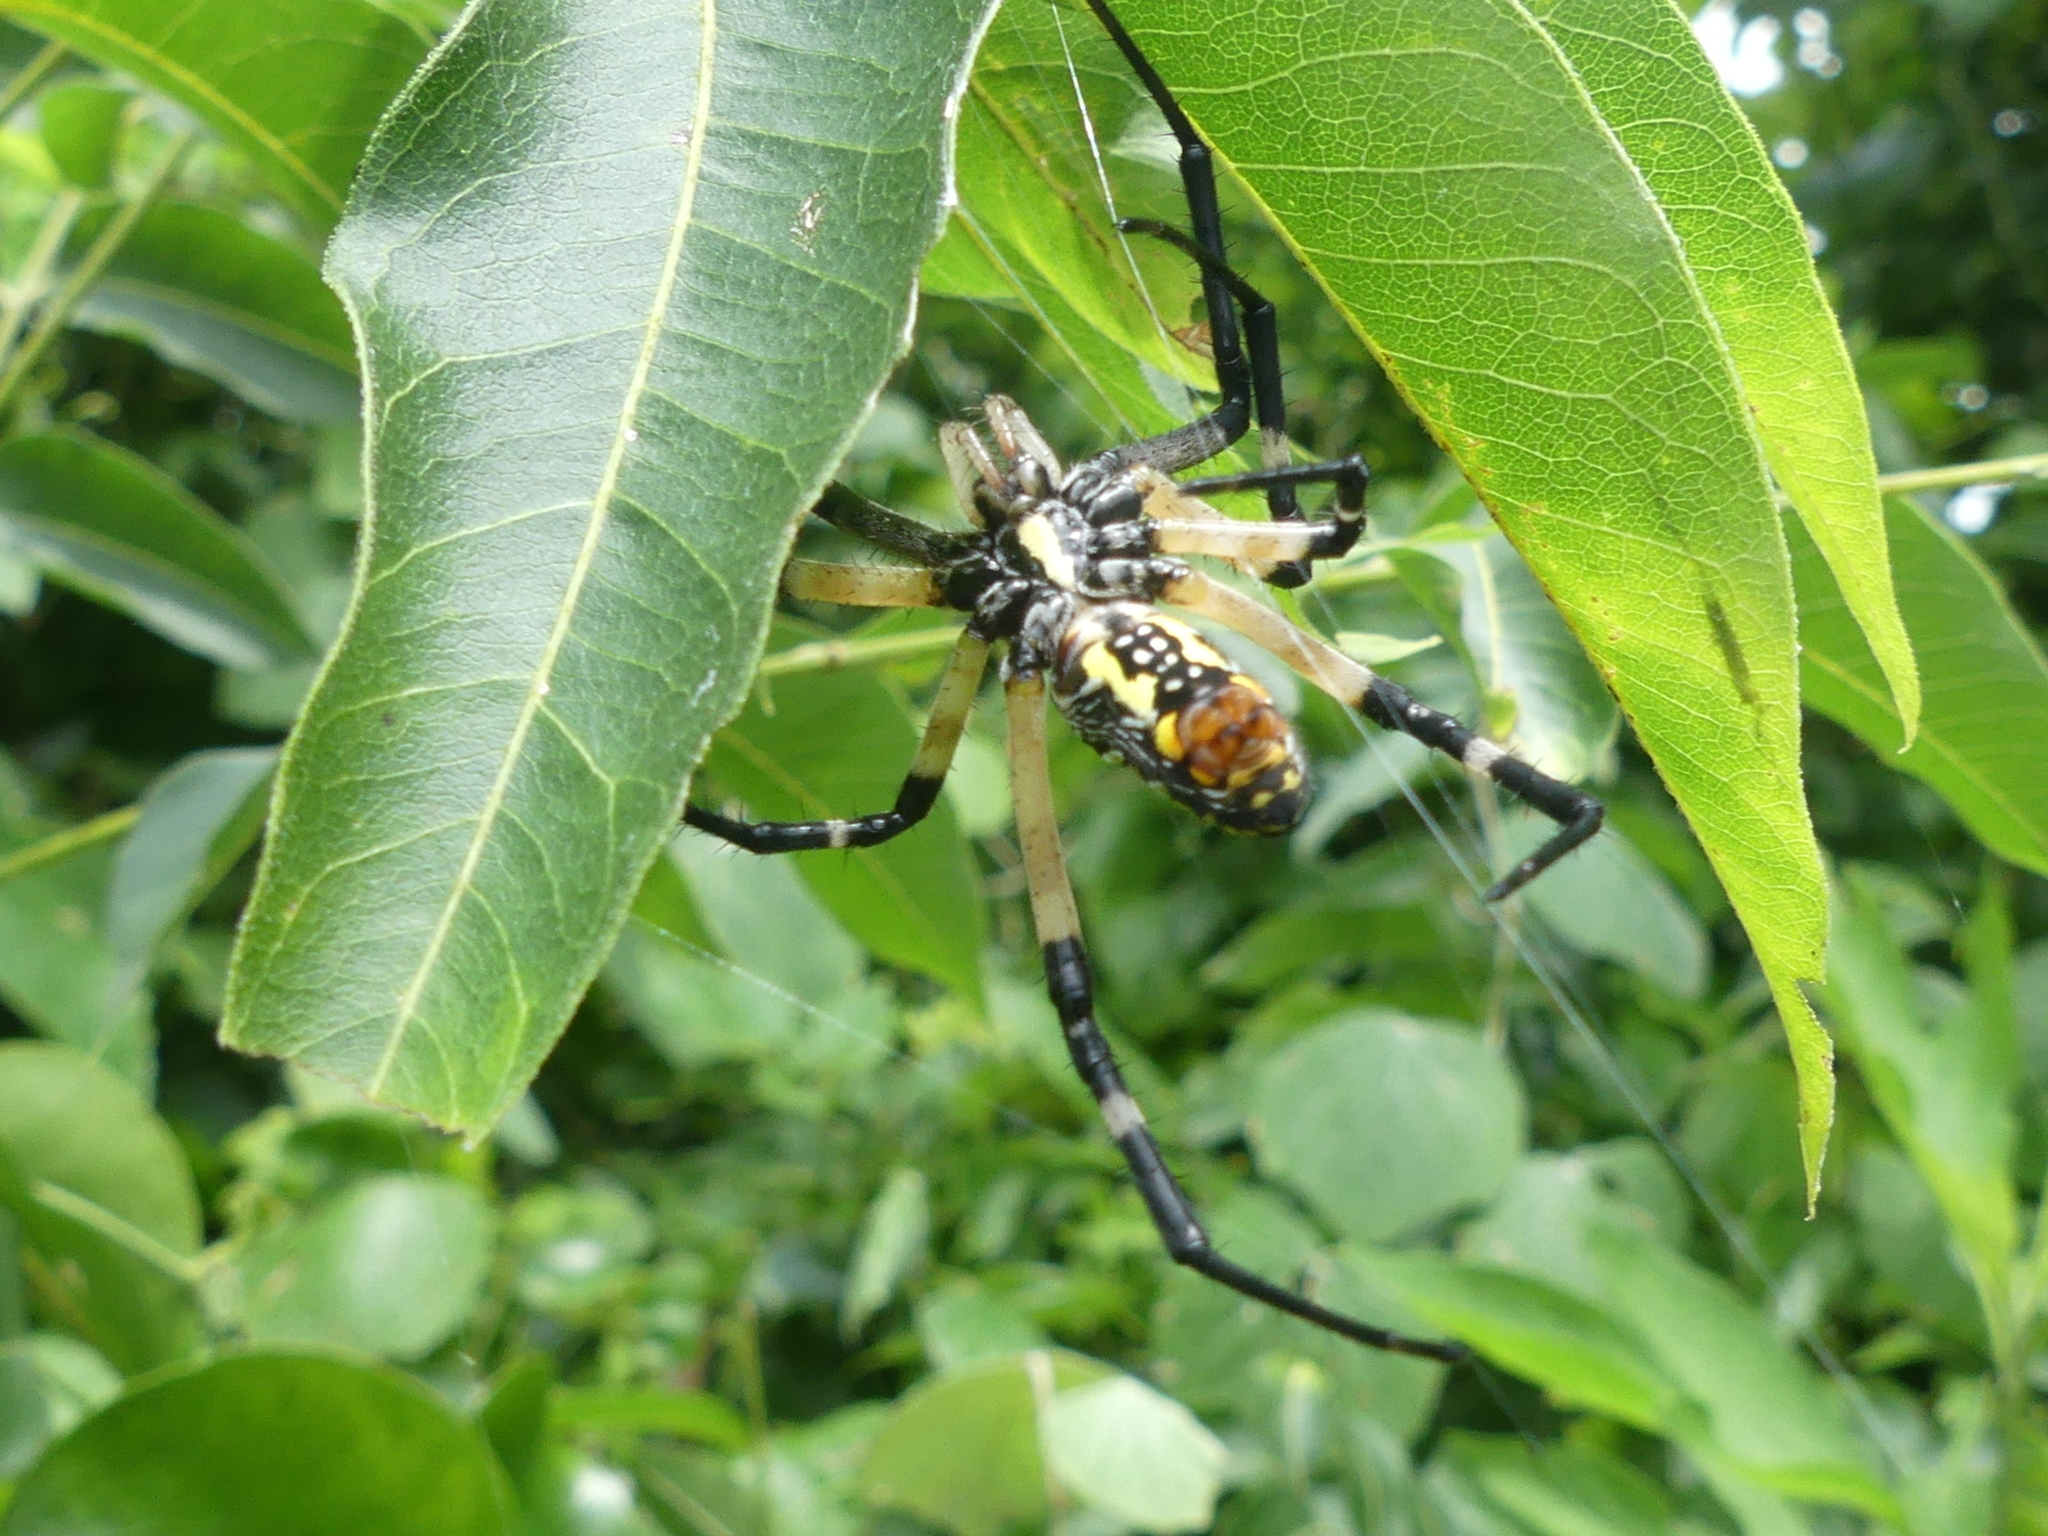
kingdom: Animalia
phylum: Arthropoda
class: Arachnida
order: Araneae
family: Araneidae
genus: Argiope
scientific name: Argiope aurantia
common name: Orb weavers
